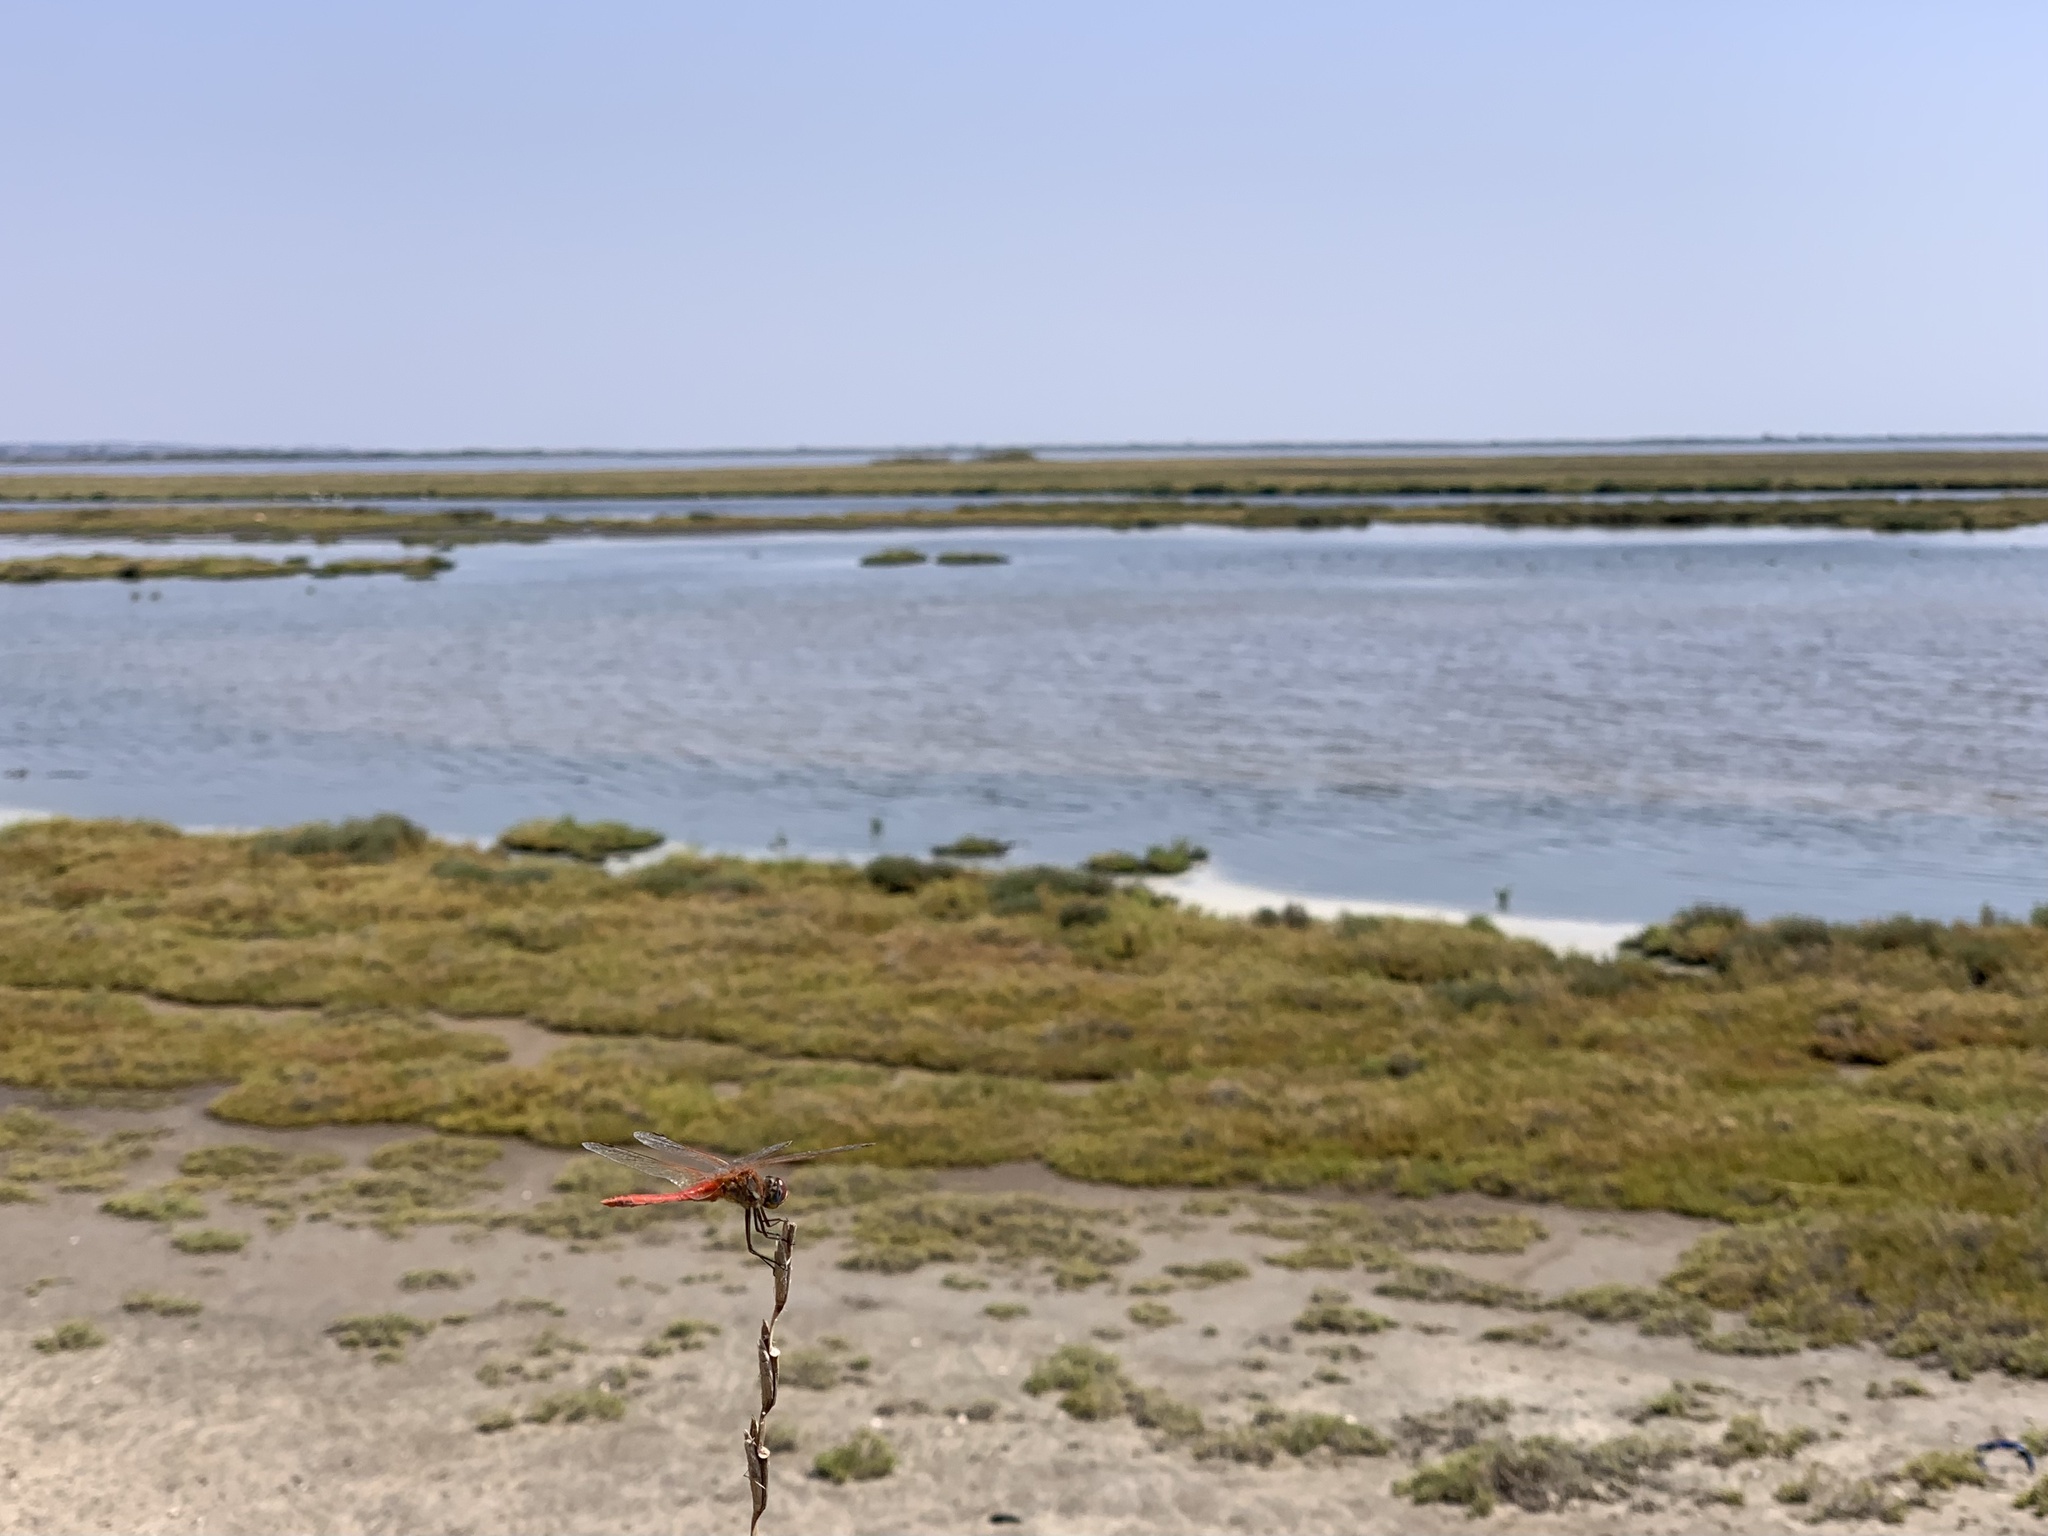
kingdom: Animalia
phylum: Arthropoda
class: Insecta
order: Odonata
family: Libellulidae
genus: Sympetrum
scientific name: Sympetrum fonscolombii
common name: Red-veined darter
